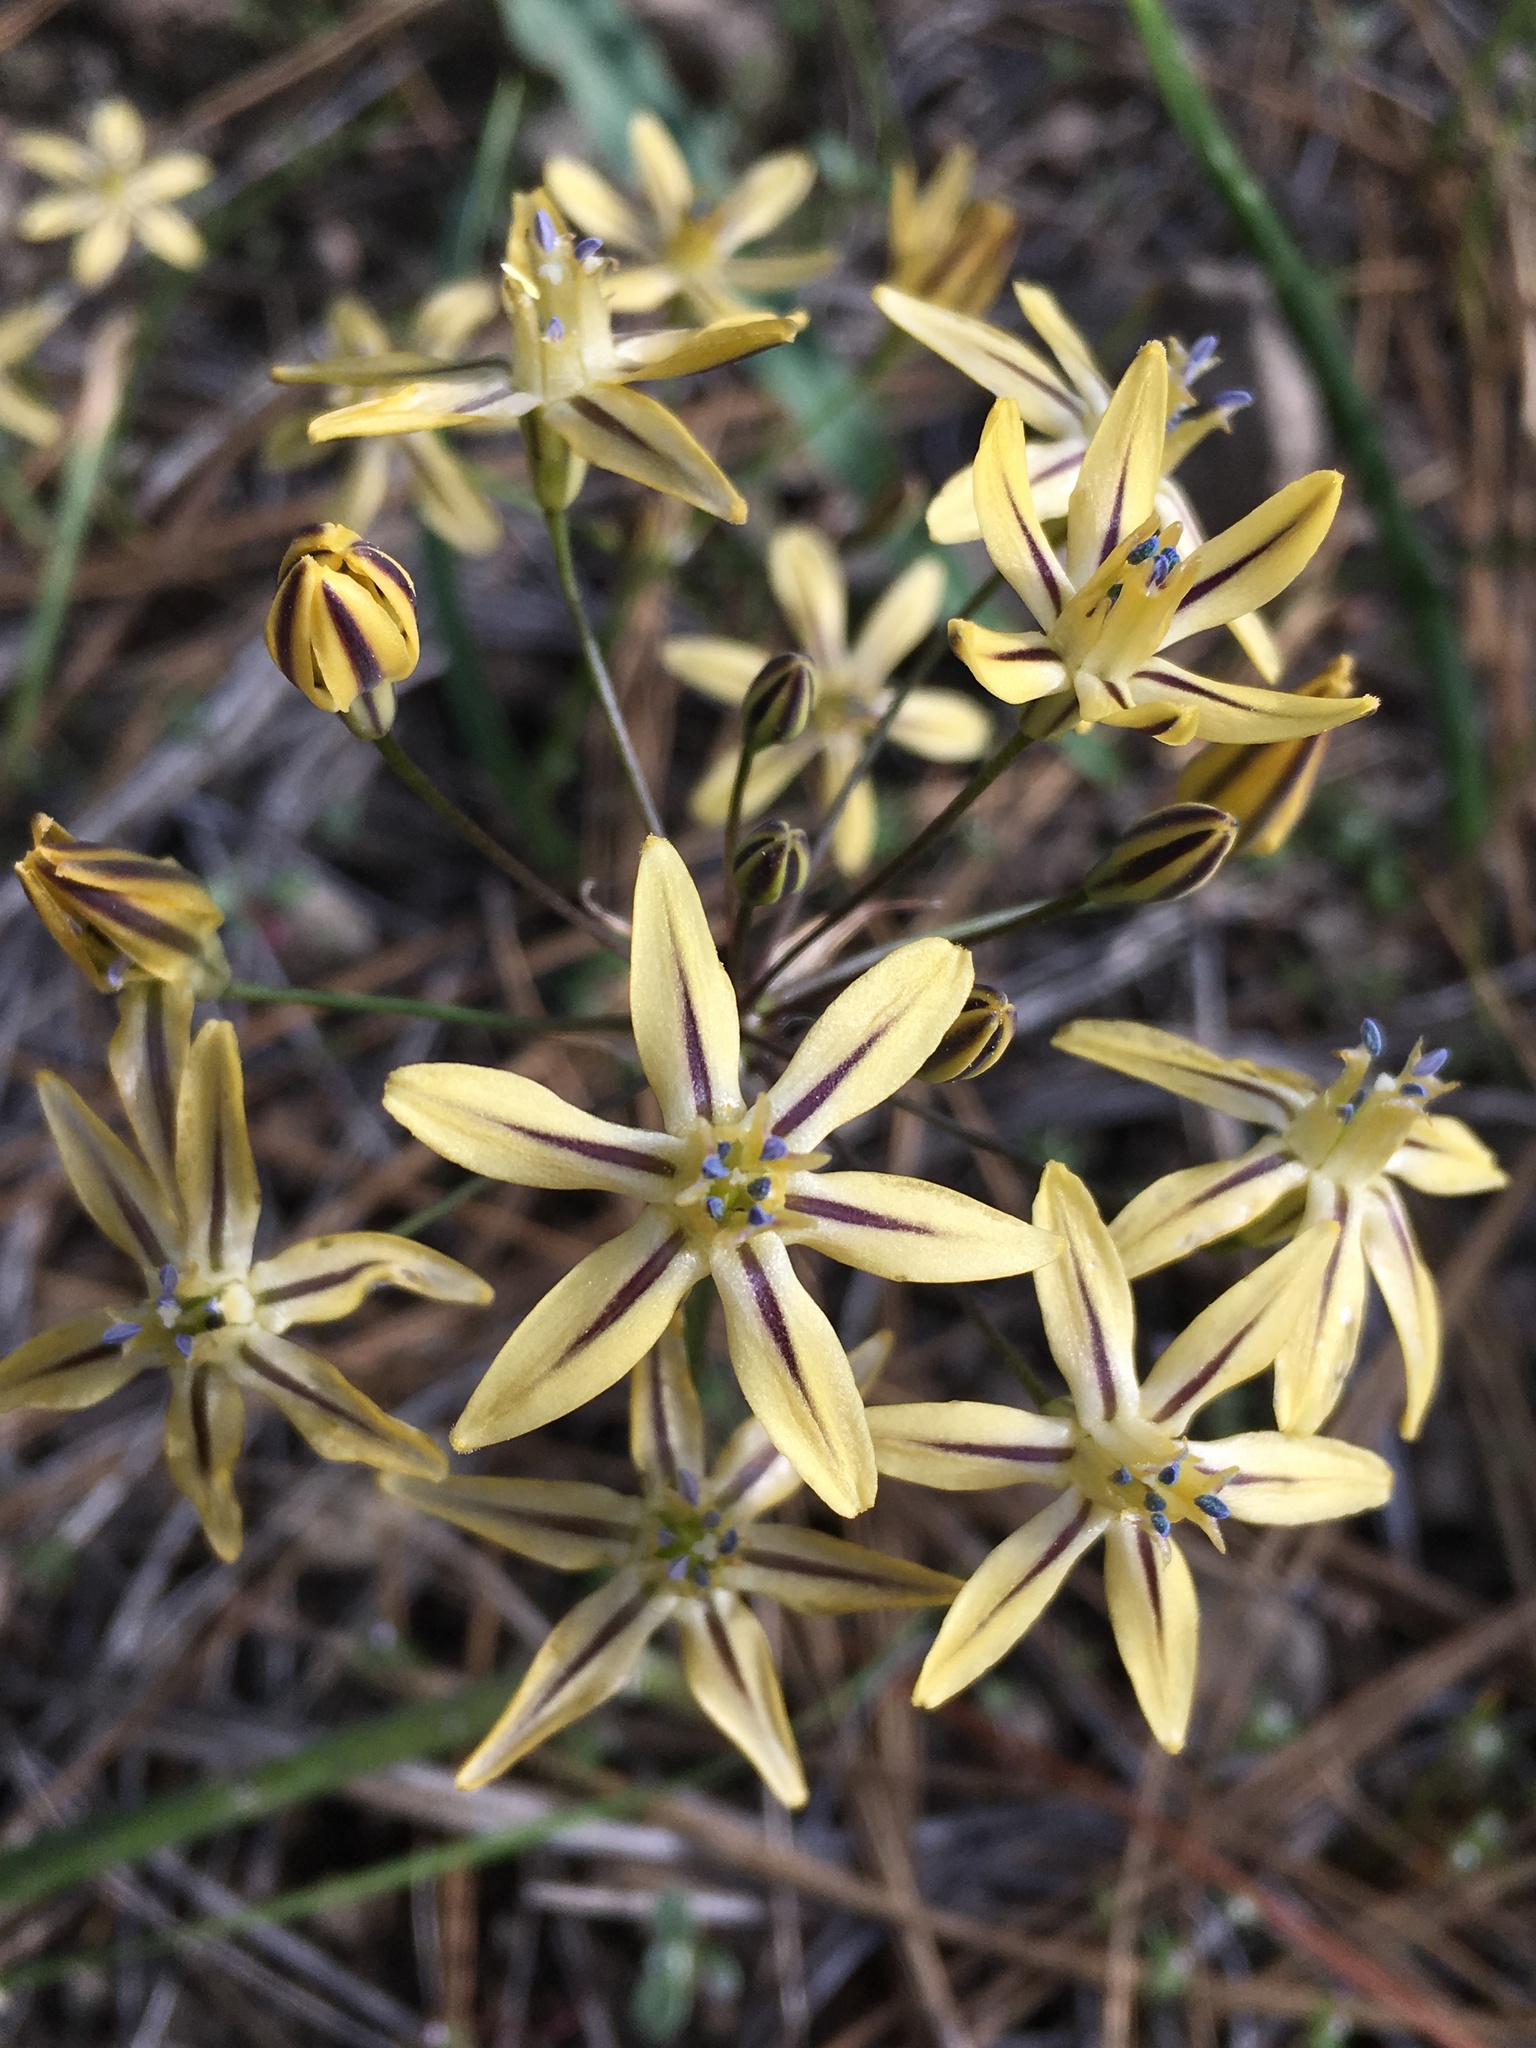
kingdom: Plantae
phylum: Tracheophyta
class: Liliopsida
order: Asparagales
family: Asparagaceae
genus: Triteleia
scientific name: Triteleia ixioides
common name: Yellow-brodiaea
